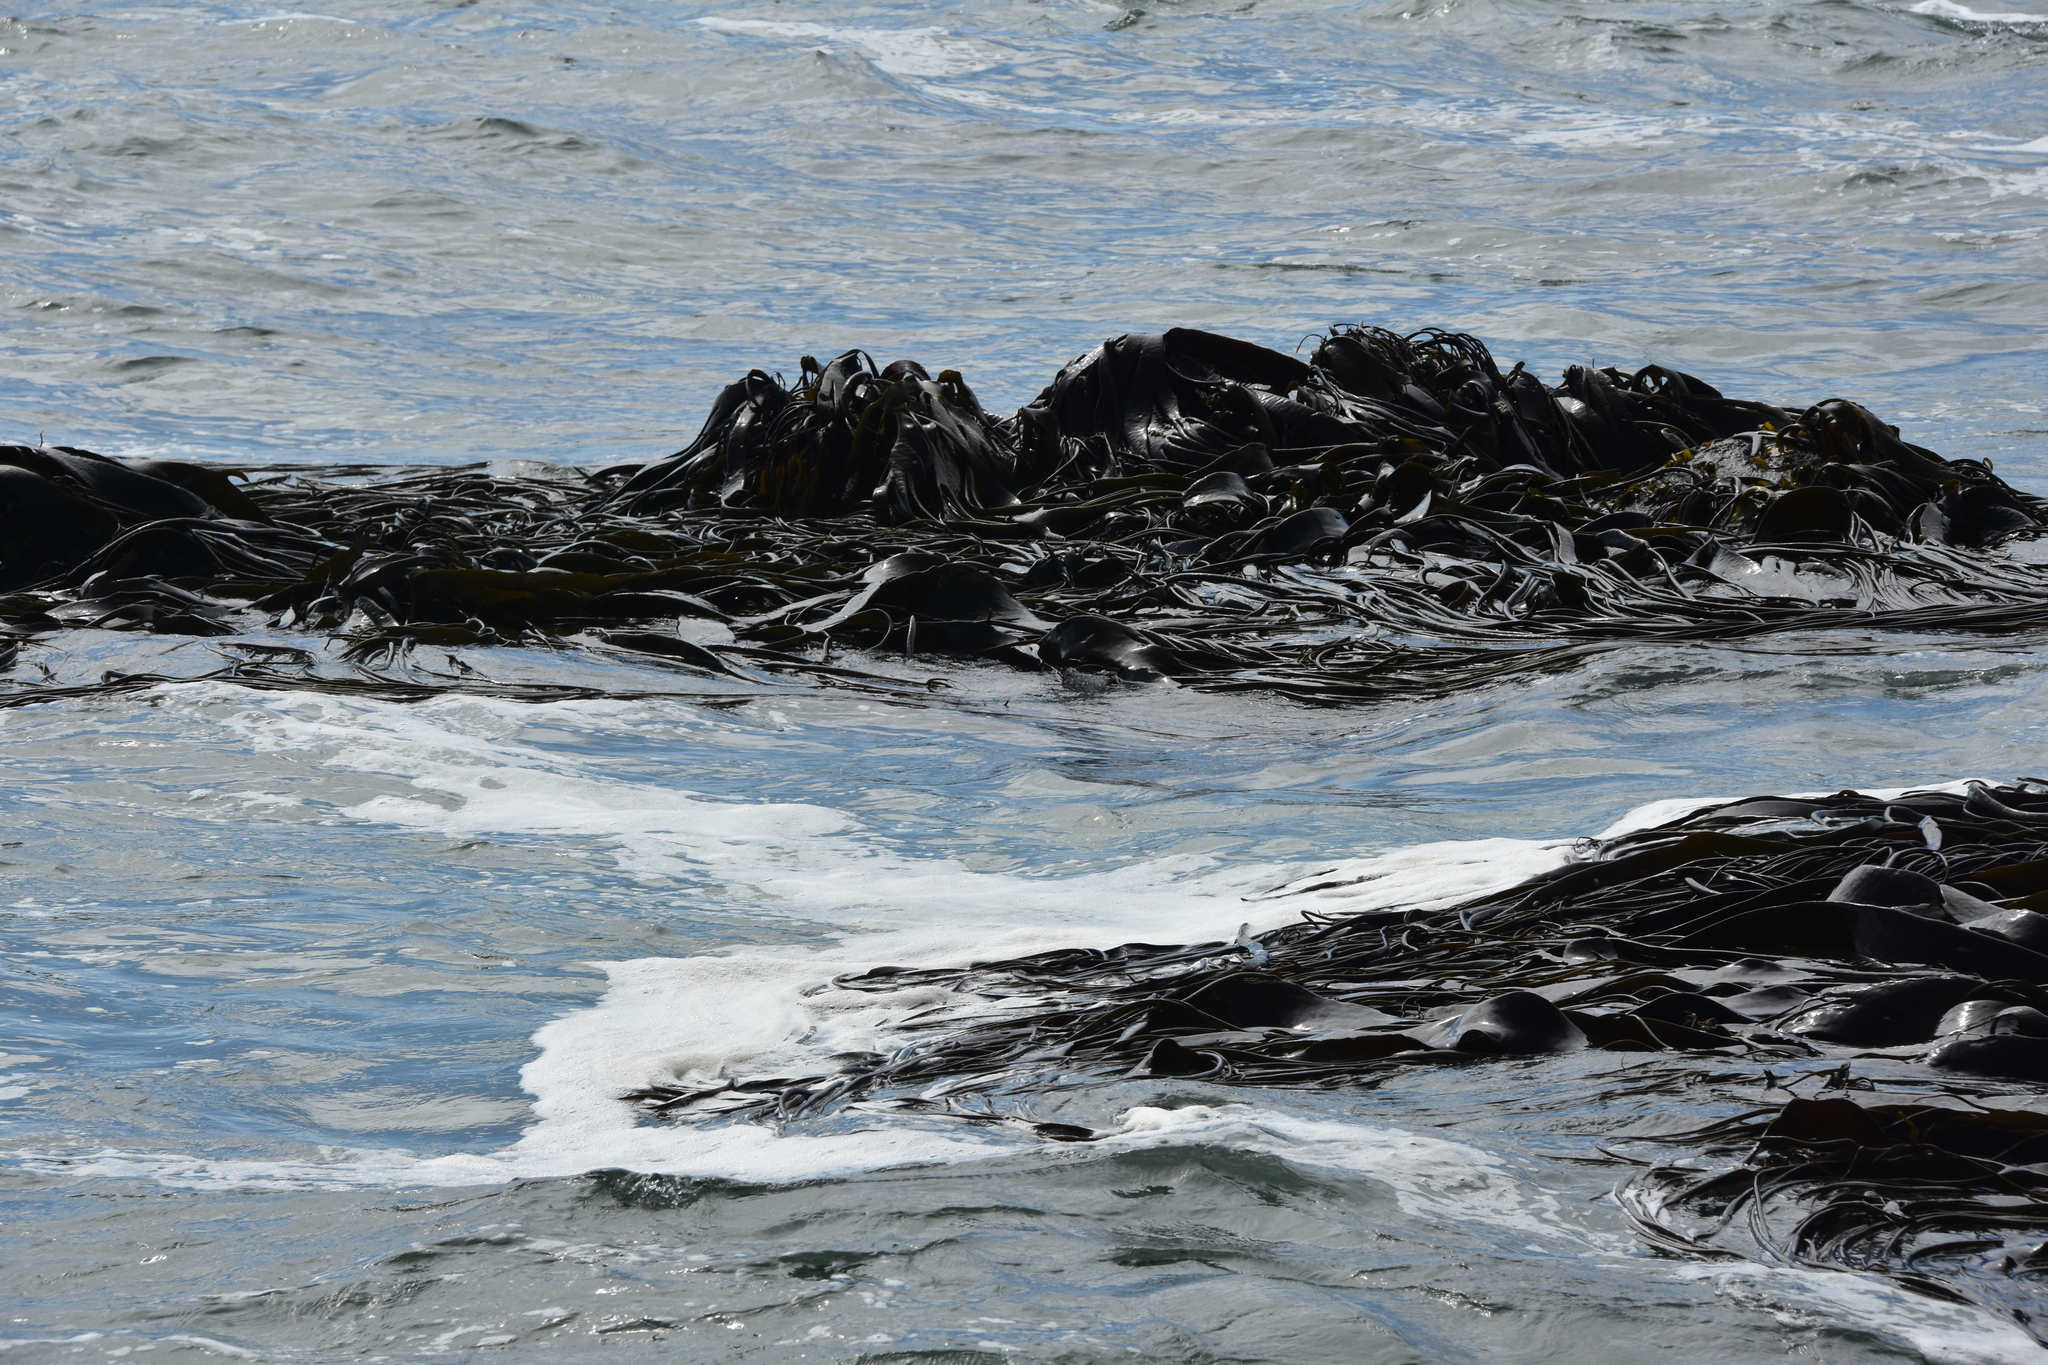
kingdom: Chromista
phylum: Ochrophyta
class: Phaeophyceae
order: Fucales
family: Durvillaeaceae
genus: Durvillaea
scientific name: Durvillaea
